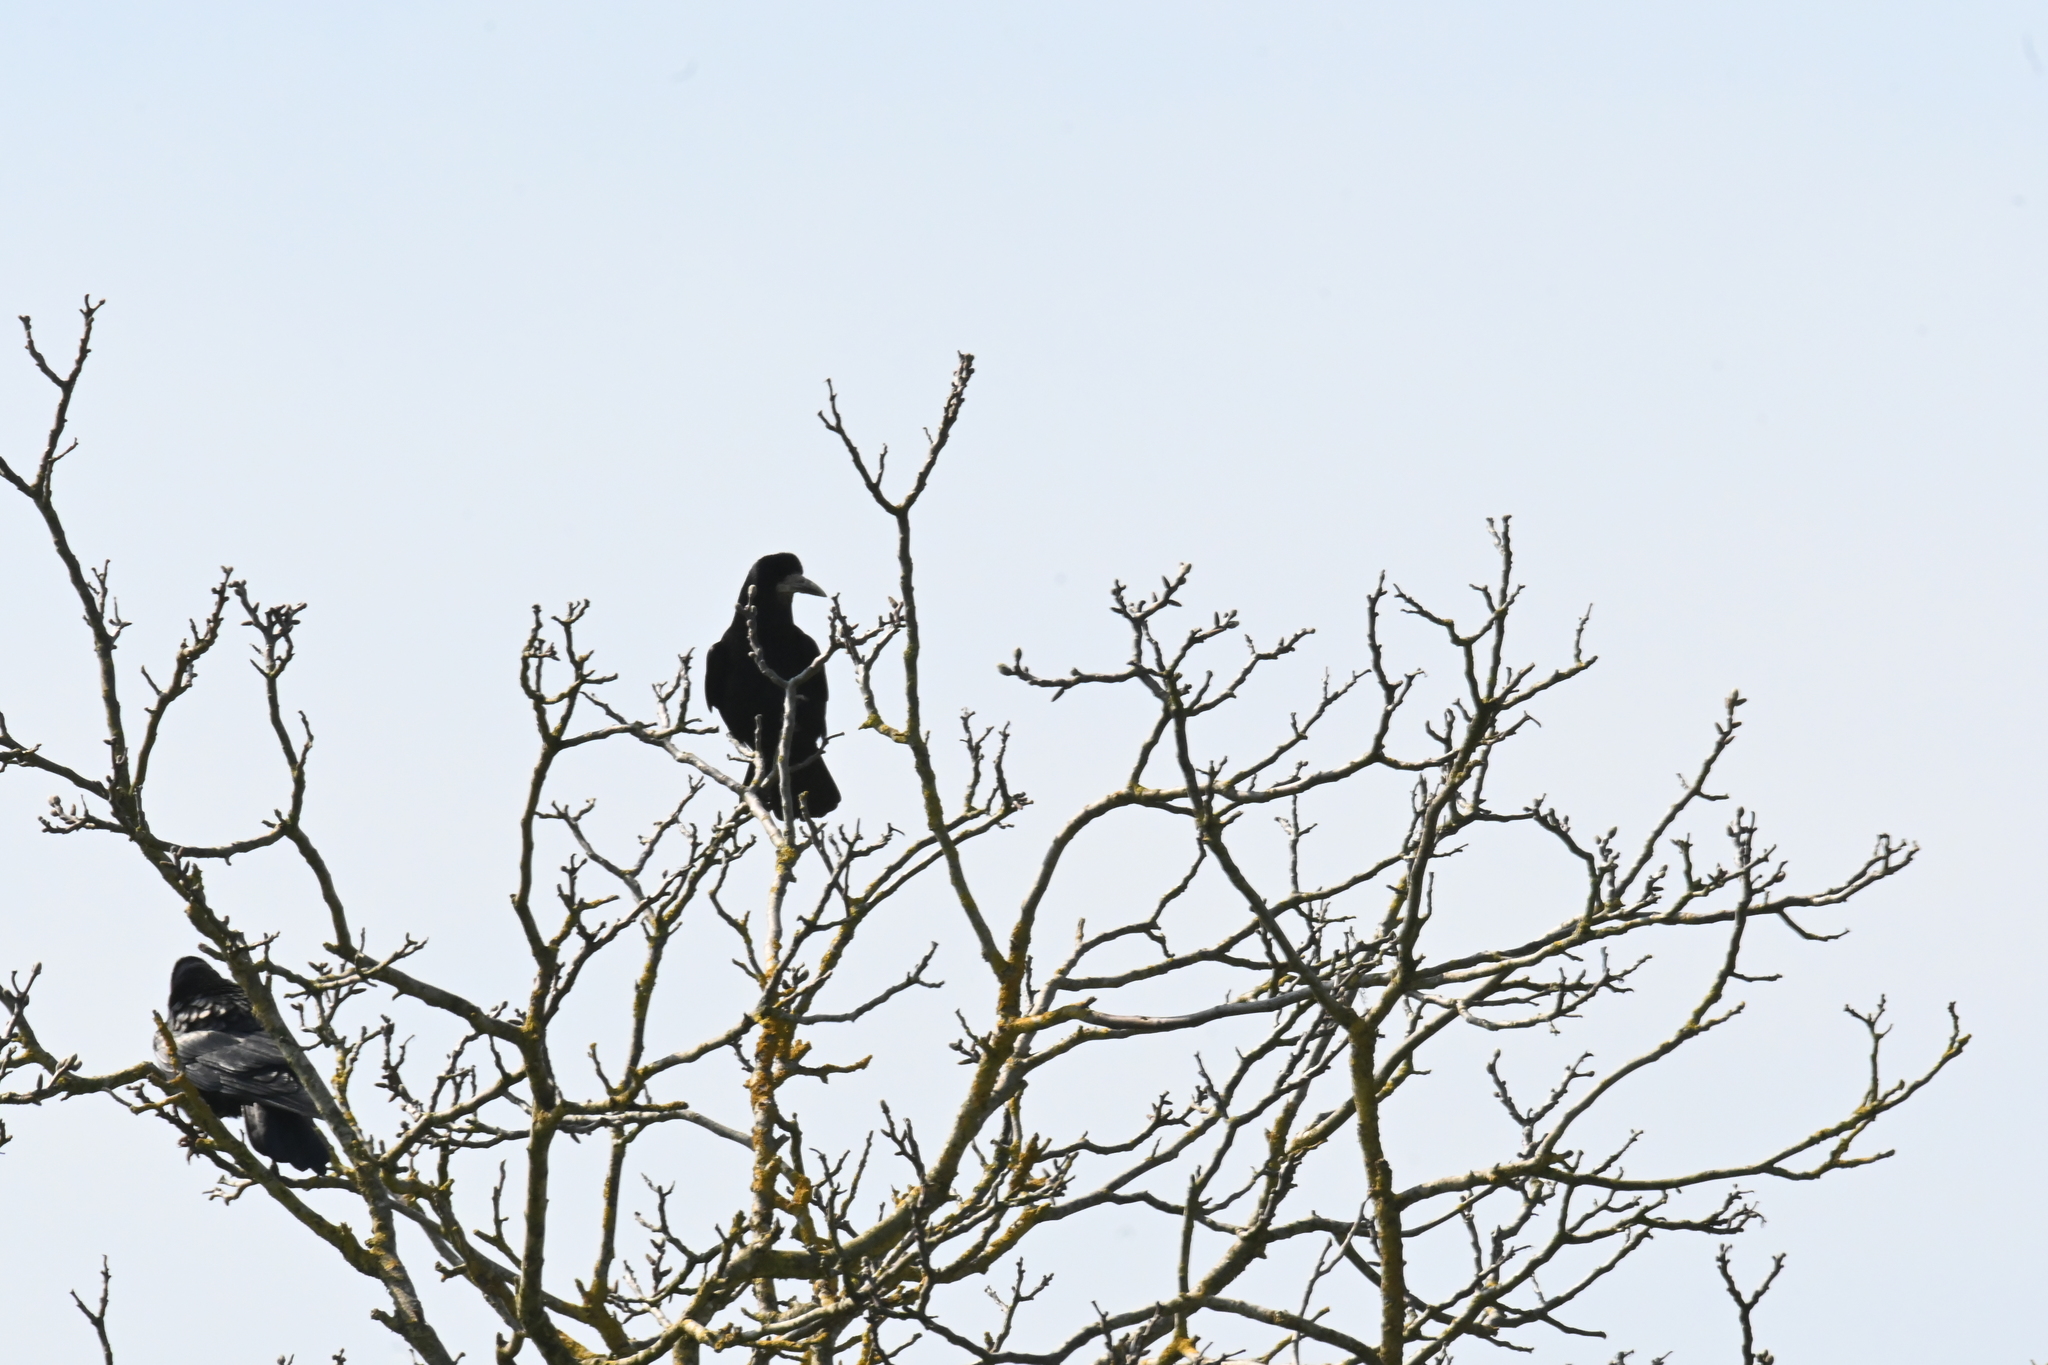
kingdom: Animalia
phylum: Chordata
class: Aves
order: Passeriformes
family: Corvidae
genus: Corvus
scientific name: Corvus frugilegus
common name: Rook
